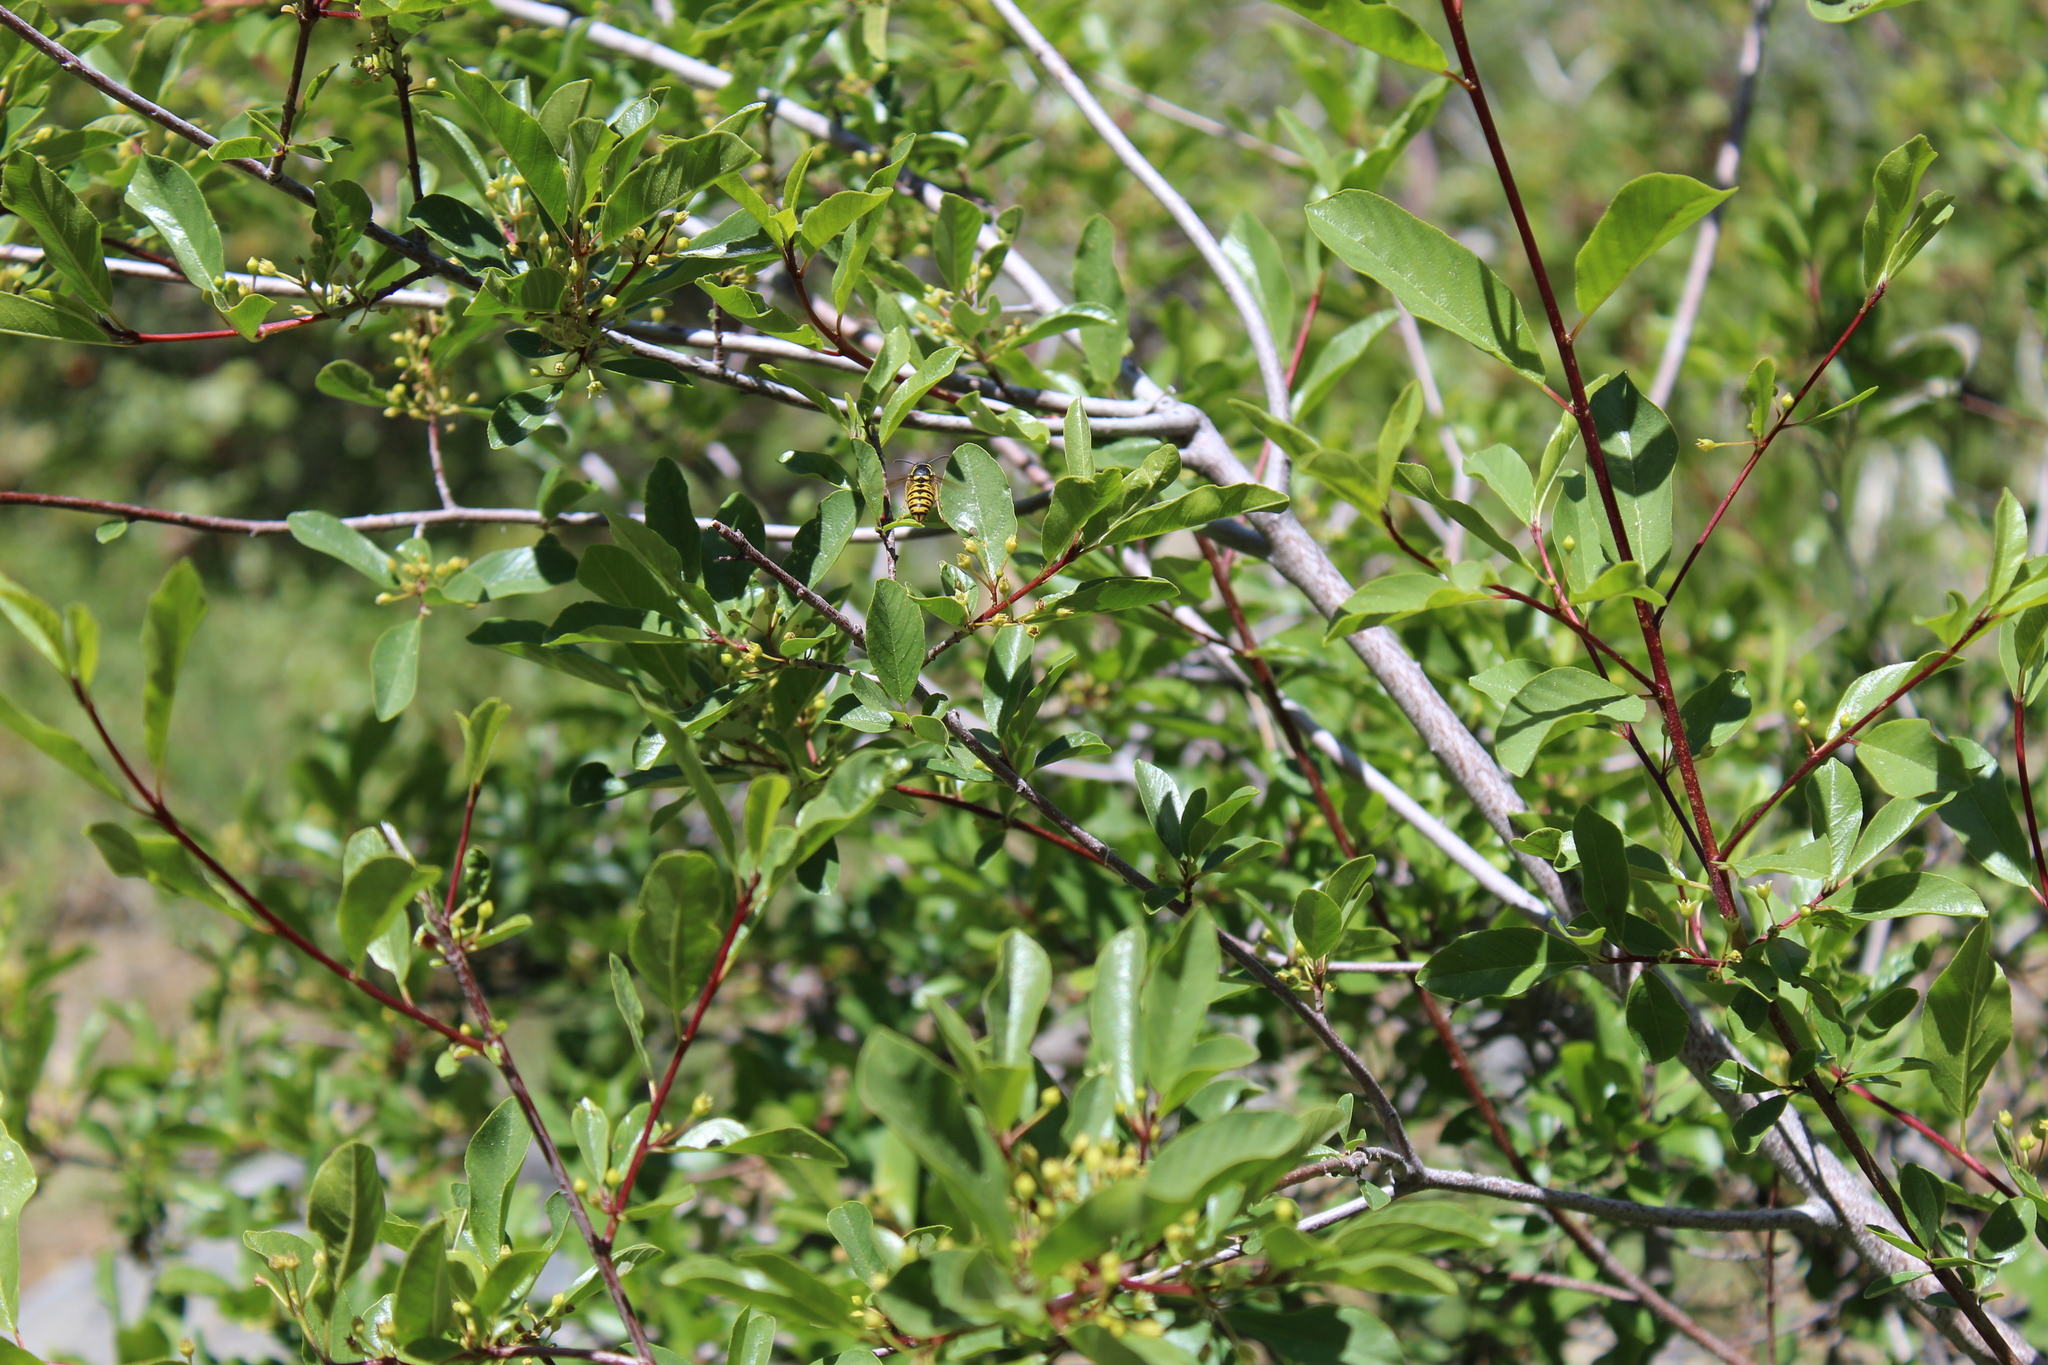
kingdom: Animalia
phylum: Arthropoda
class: Insecta
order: Hymenoptera
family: Vespidae
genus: Dolichovespula
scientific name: Dolichovespula arenaria
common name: Aerial yellowjacket
